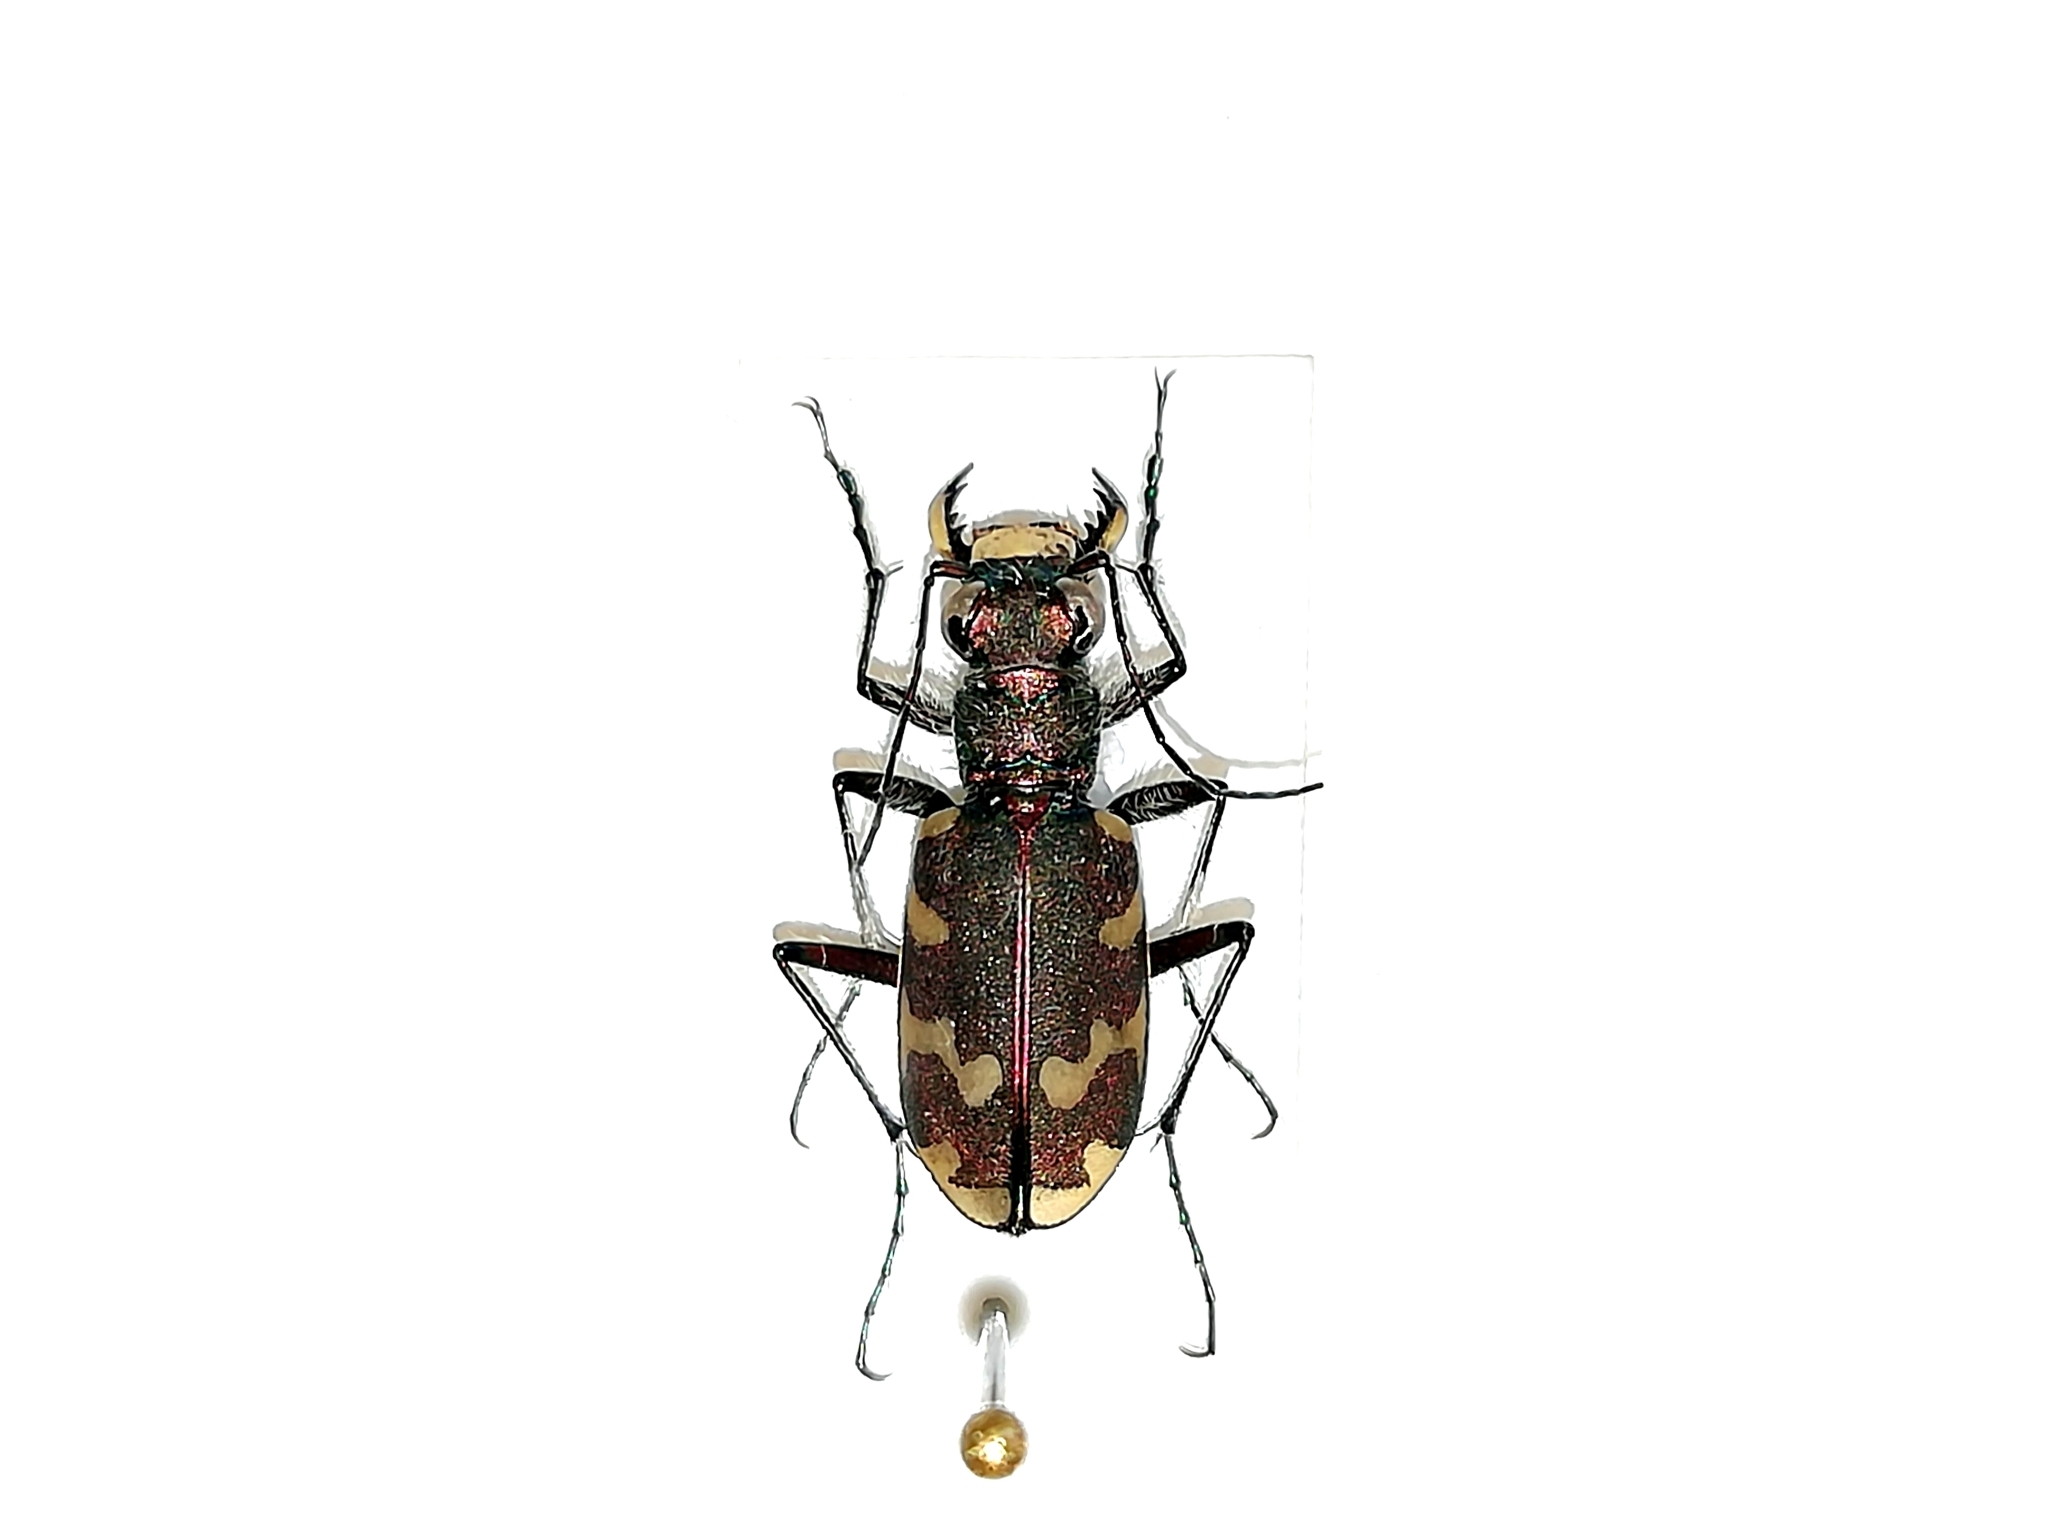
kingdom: Animalia
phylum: Arthropoda
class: Insecta
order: Coleoptera
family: Carabidae
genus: Cicindela
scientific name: Cicindela hybrida
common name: Northern dune tiger beetle
